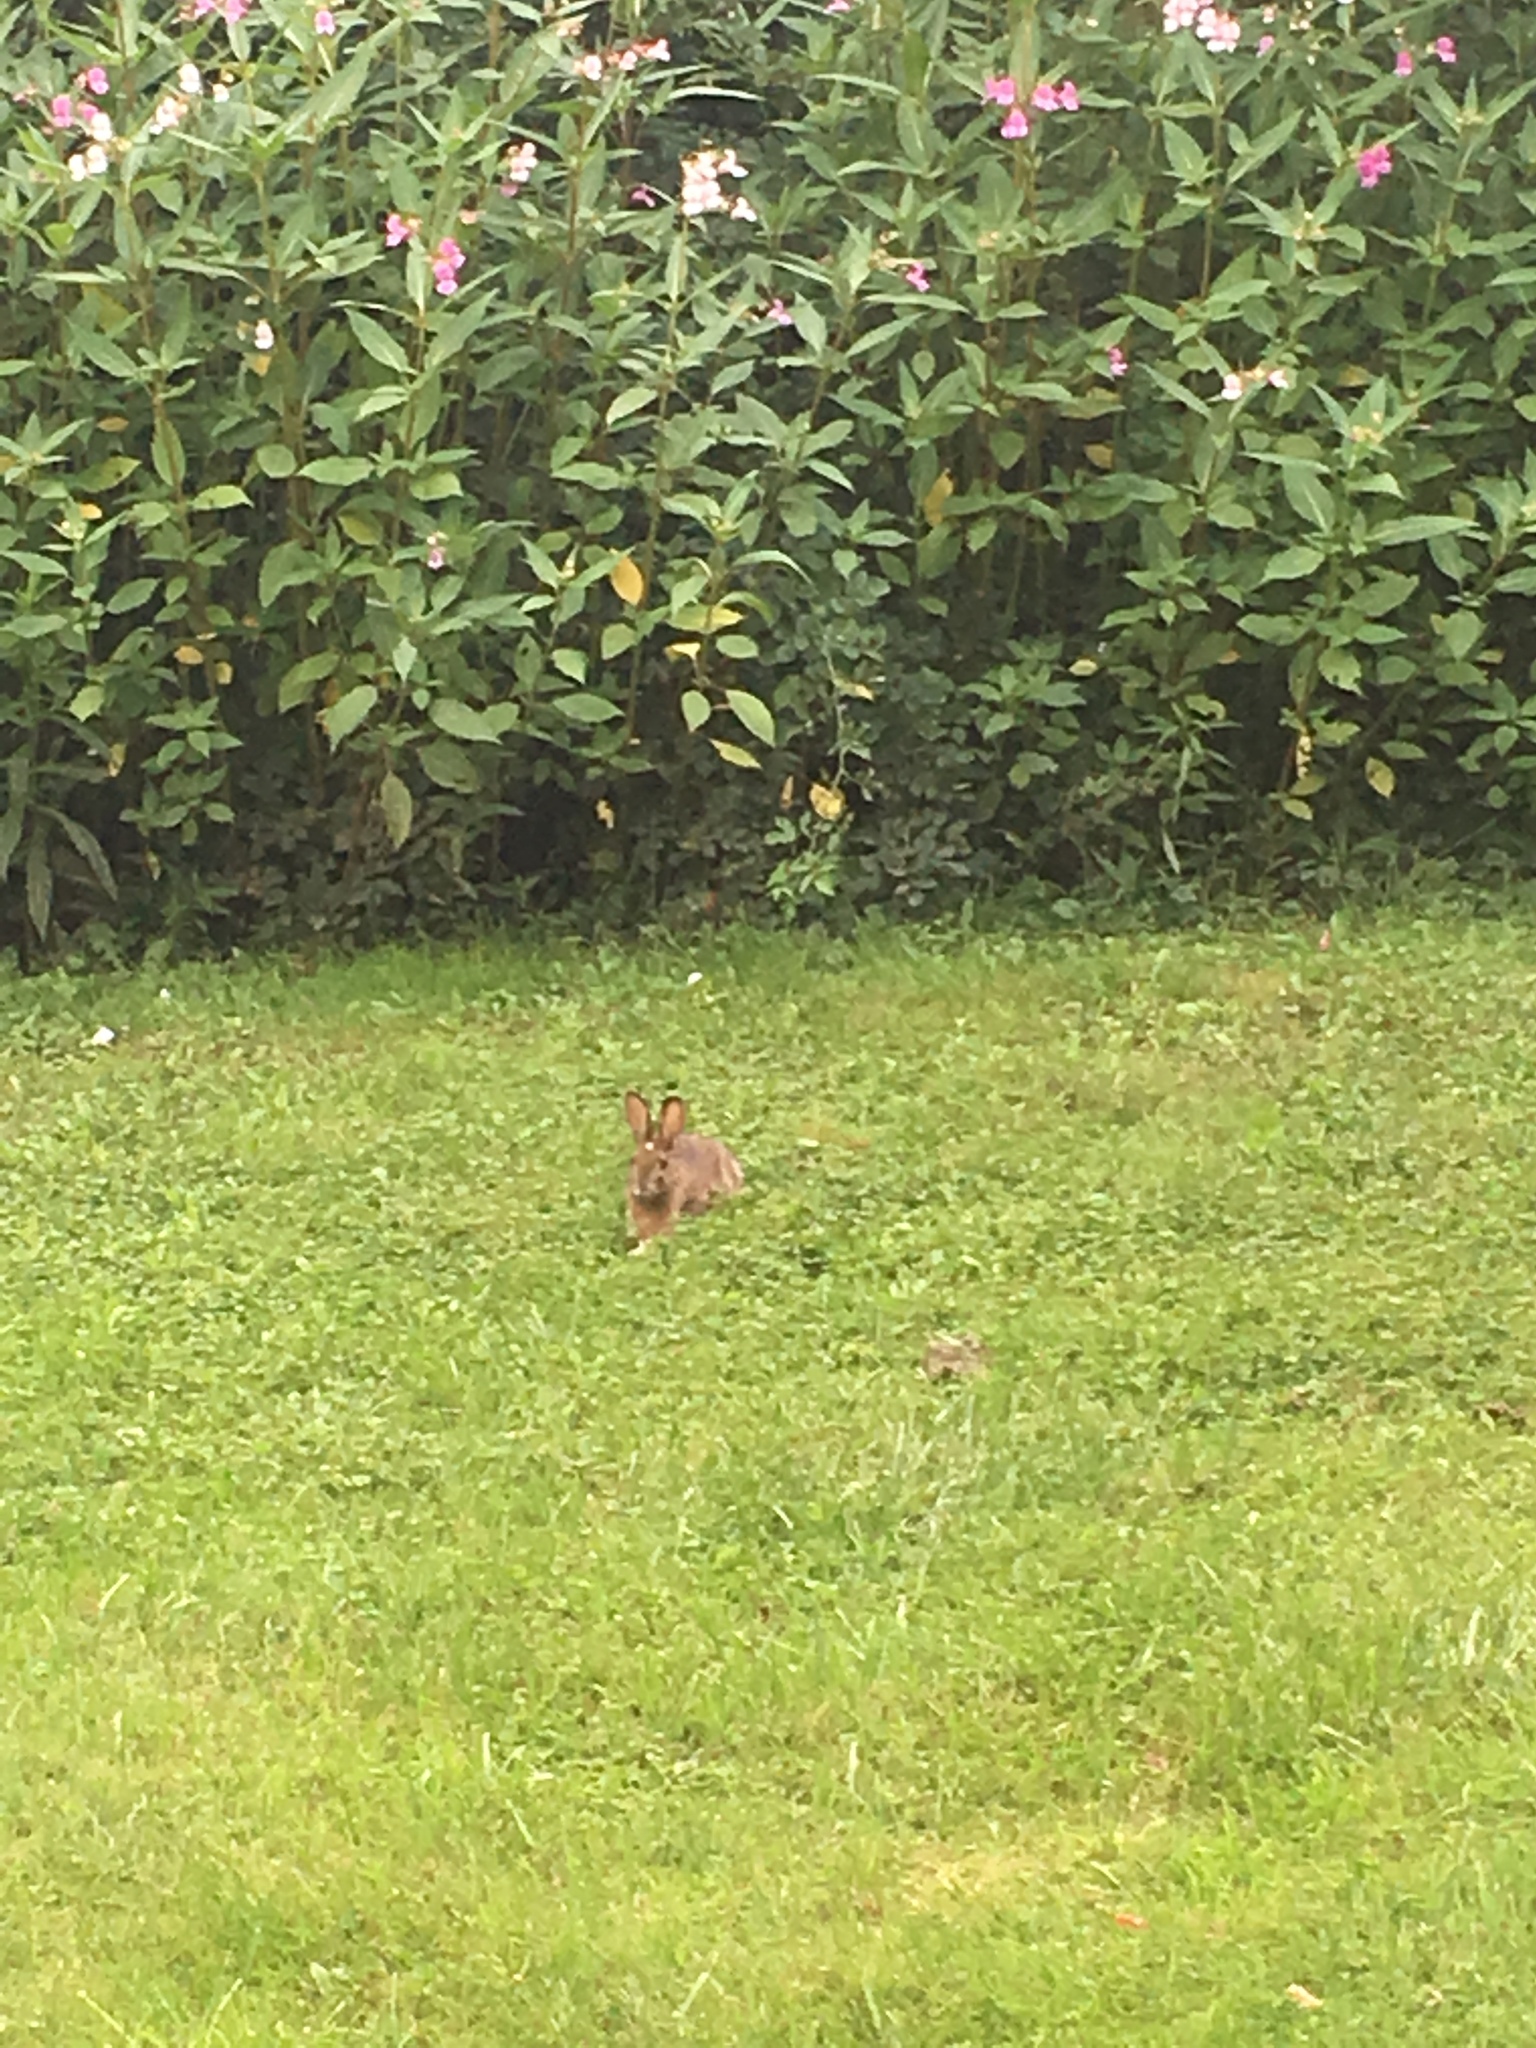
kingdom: Animalia
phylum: Chordata
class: Mammalia
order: Lagomorpha
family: Leporidae
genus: Lepus
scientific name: Lepus americanus
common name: Snowshoe hare
